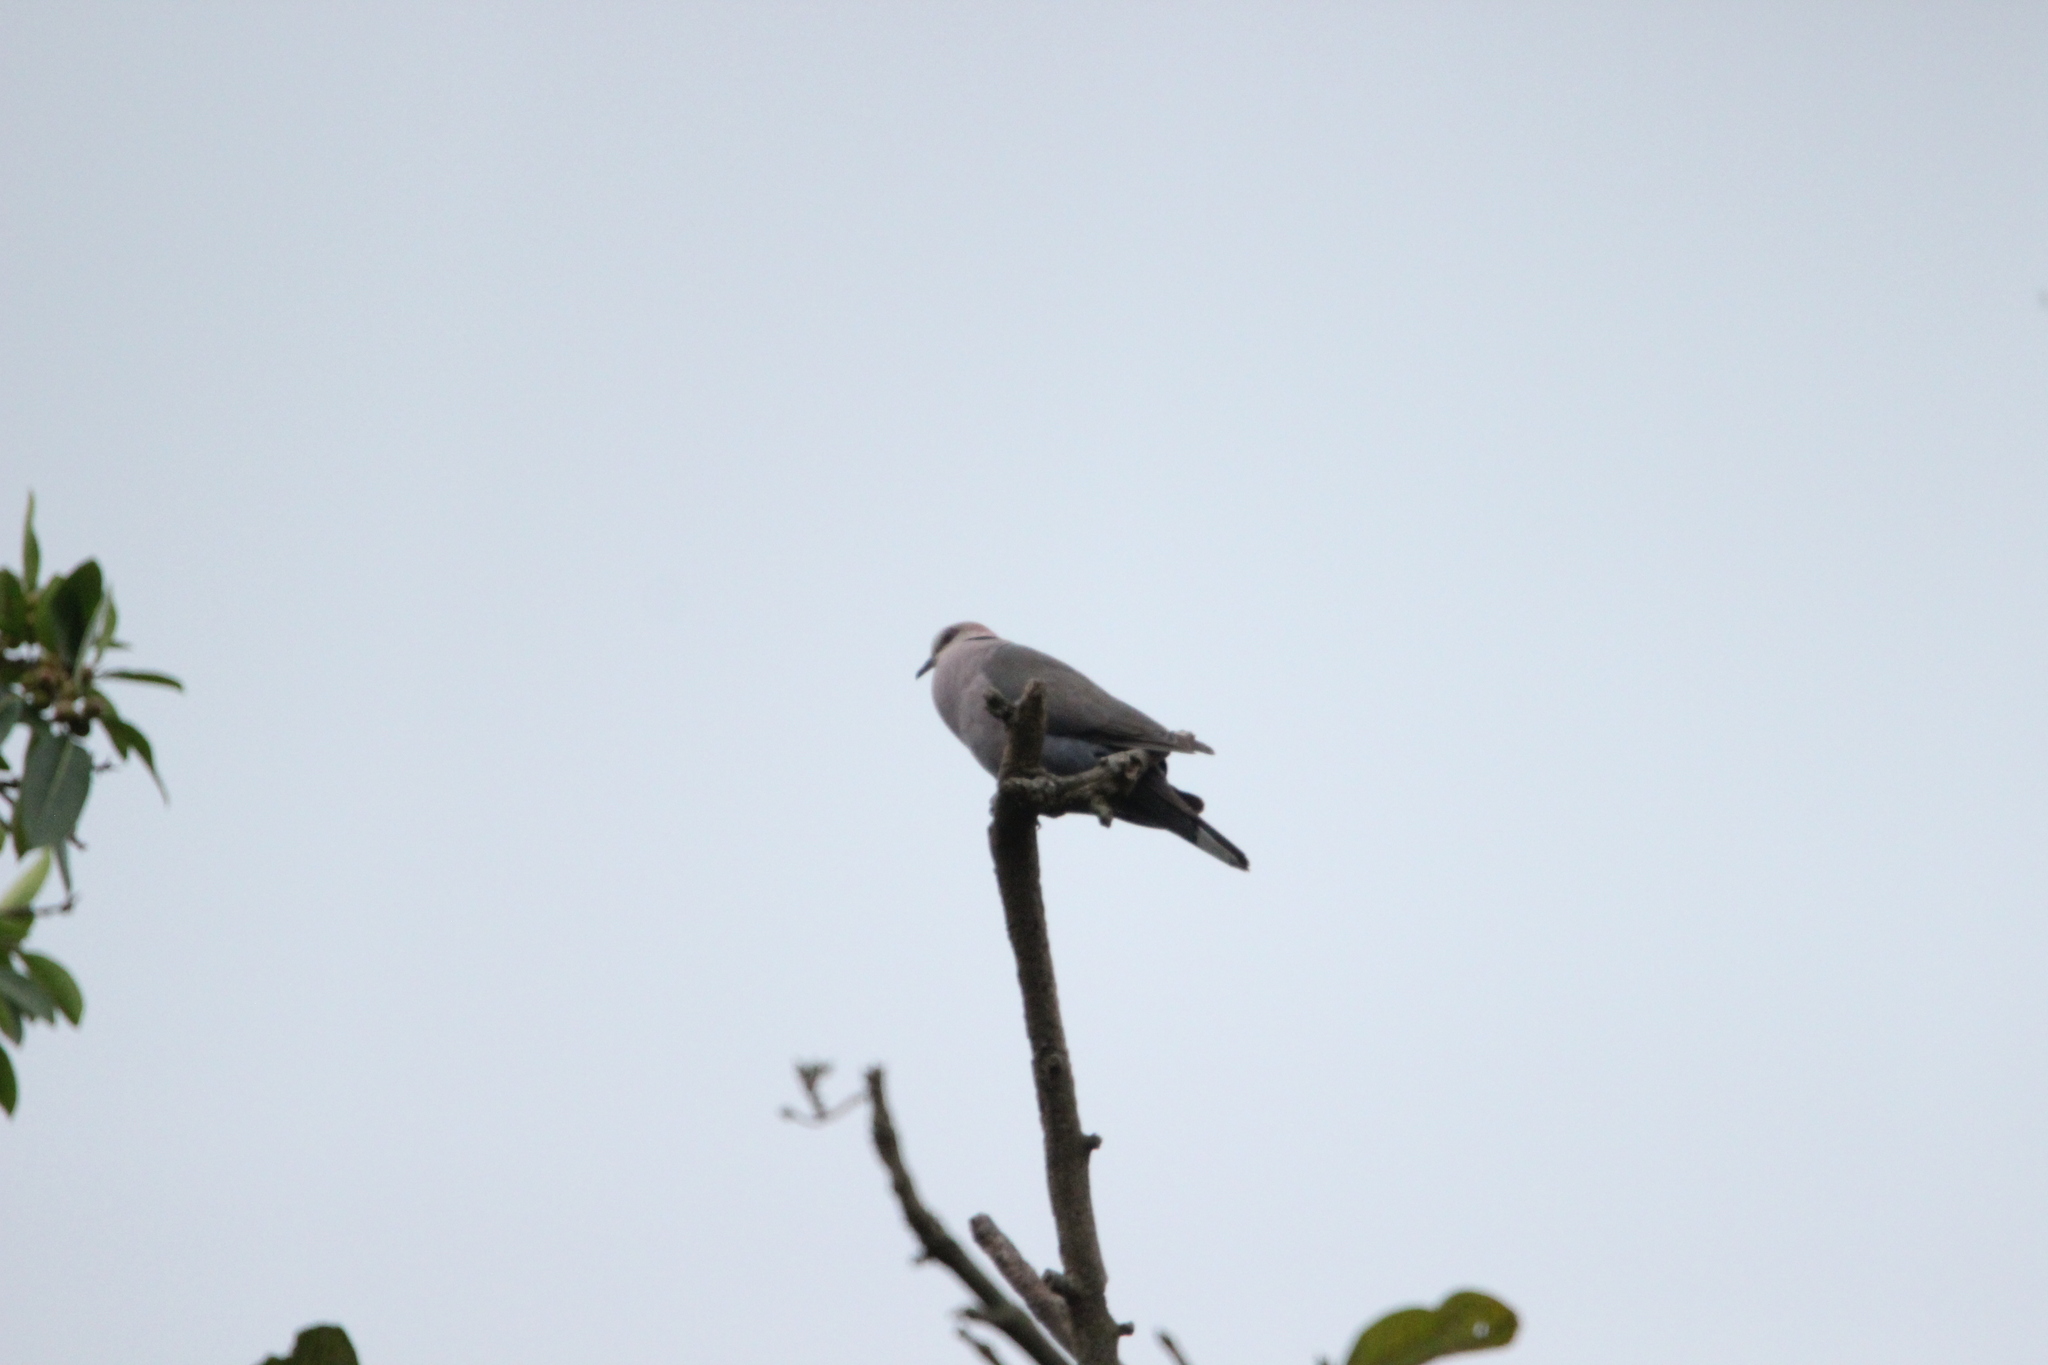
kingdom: Animalia
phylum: Chordata
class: Aves
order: Columbiformes
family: Columbidae
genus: Streptopelia
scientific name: Streptopelia semitorquata
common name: Red-eyed dove
